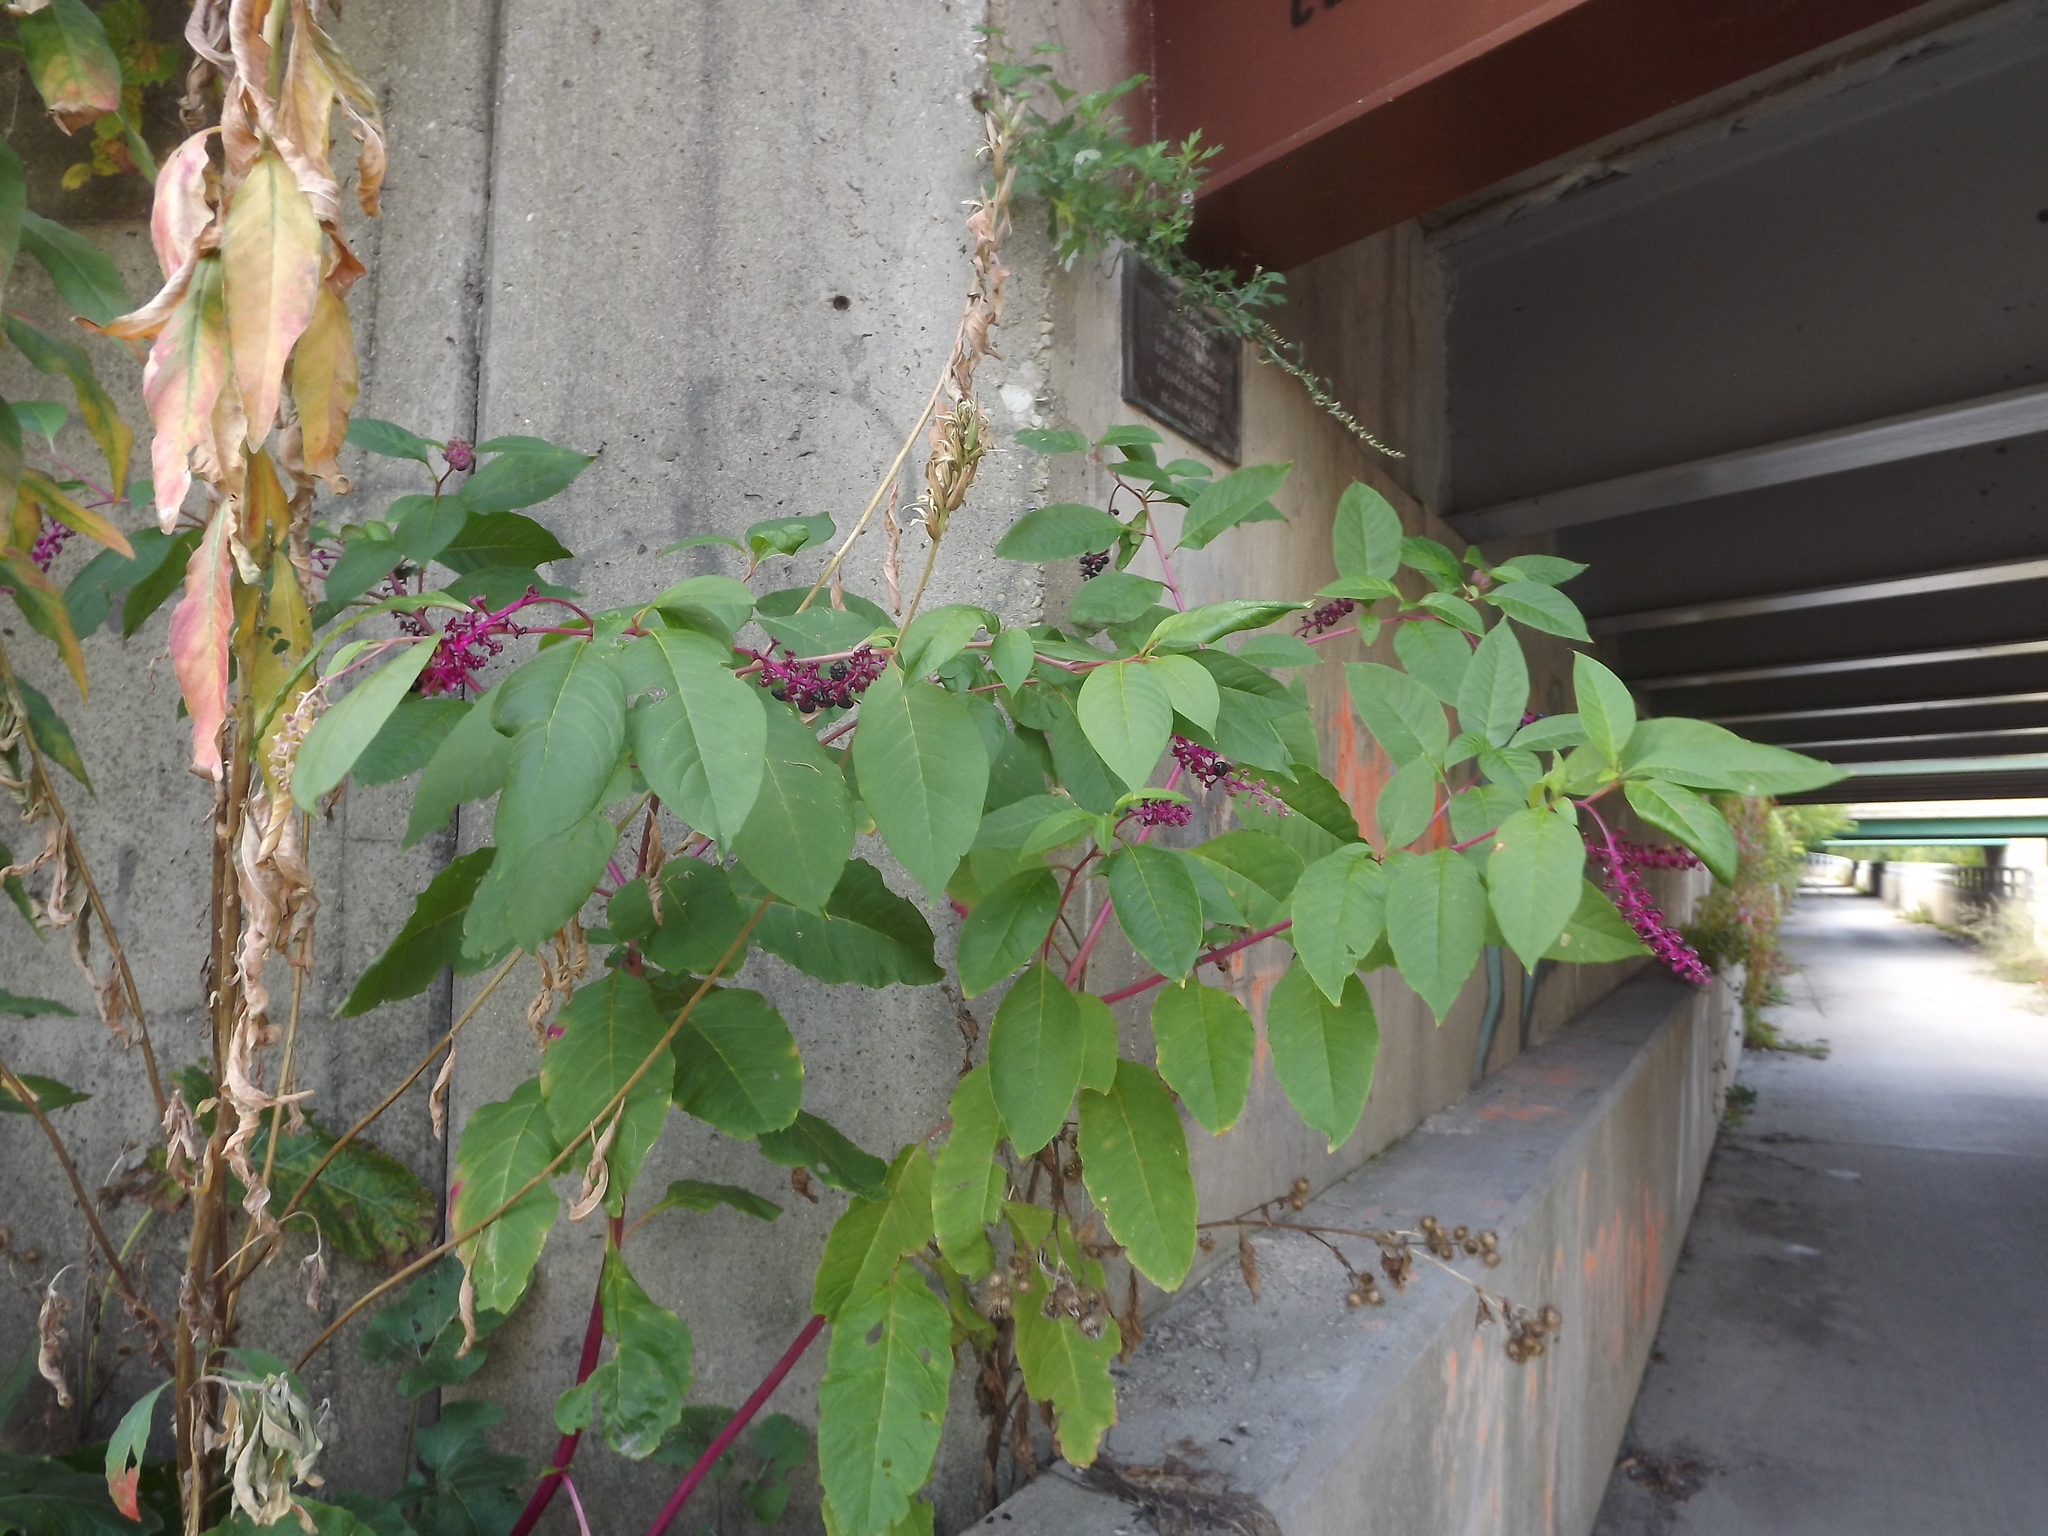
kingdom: Plantae
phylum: Tracheophyta
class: Magnoliopsida
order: Caryophyllales
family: Phytolaccaceae
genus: Phytolacca
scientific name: Phytolacca americana
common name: American pokeweed
